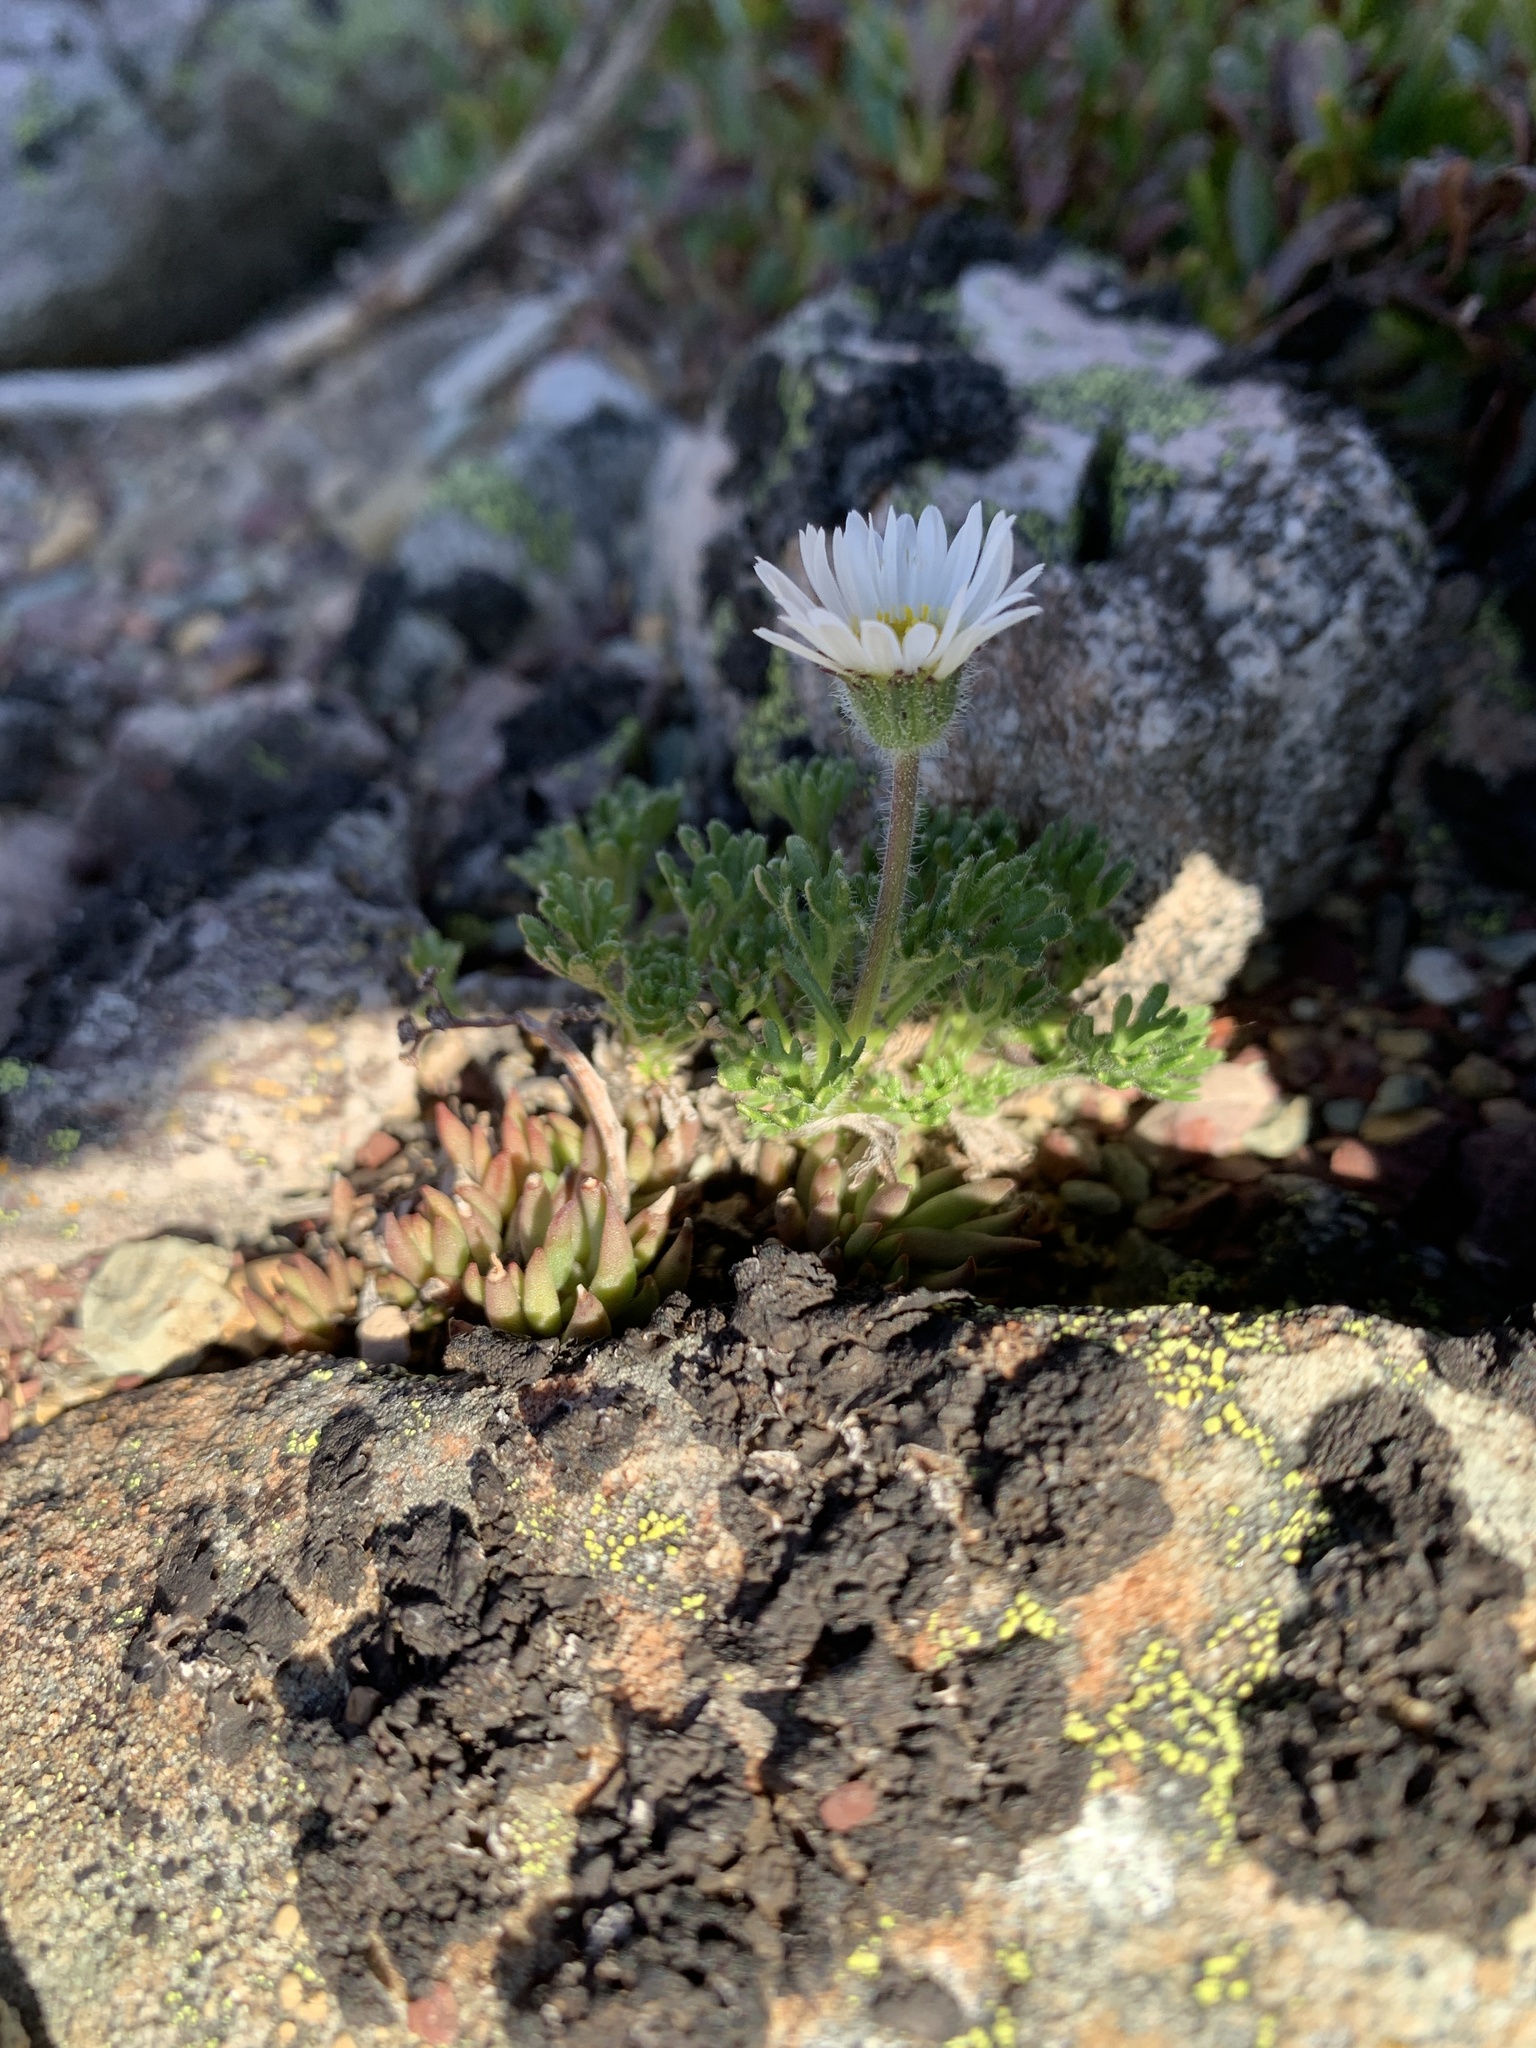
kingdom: Plantae
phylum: Tracheophyta
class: Magnoliopsida
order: Asterales
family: Asteraceae
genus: Erigeron
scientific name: Erigeron compositus
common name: Dwarf mountain fleabane
